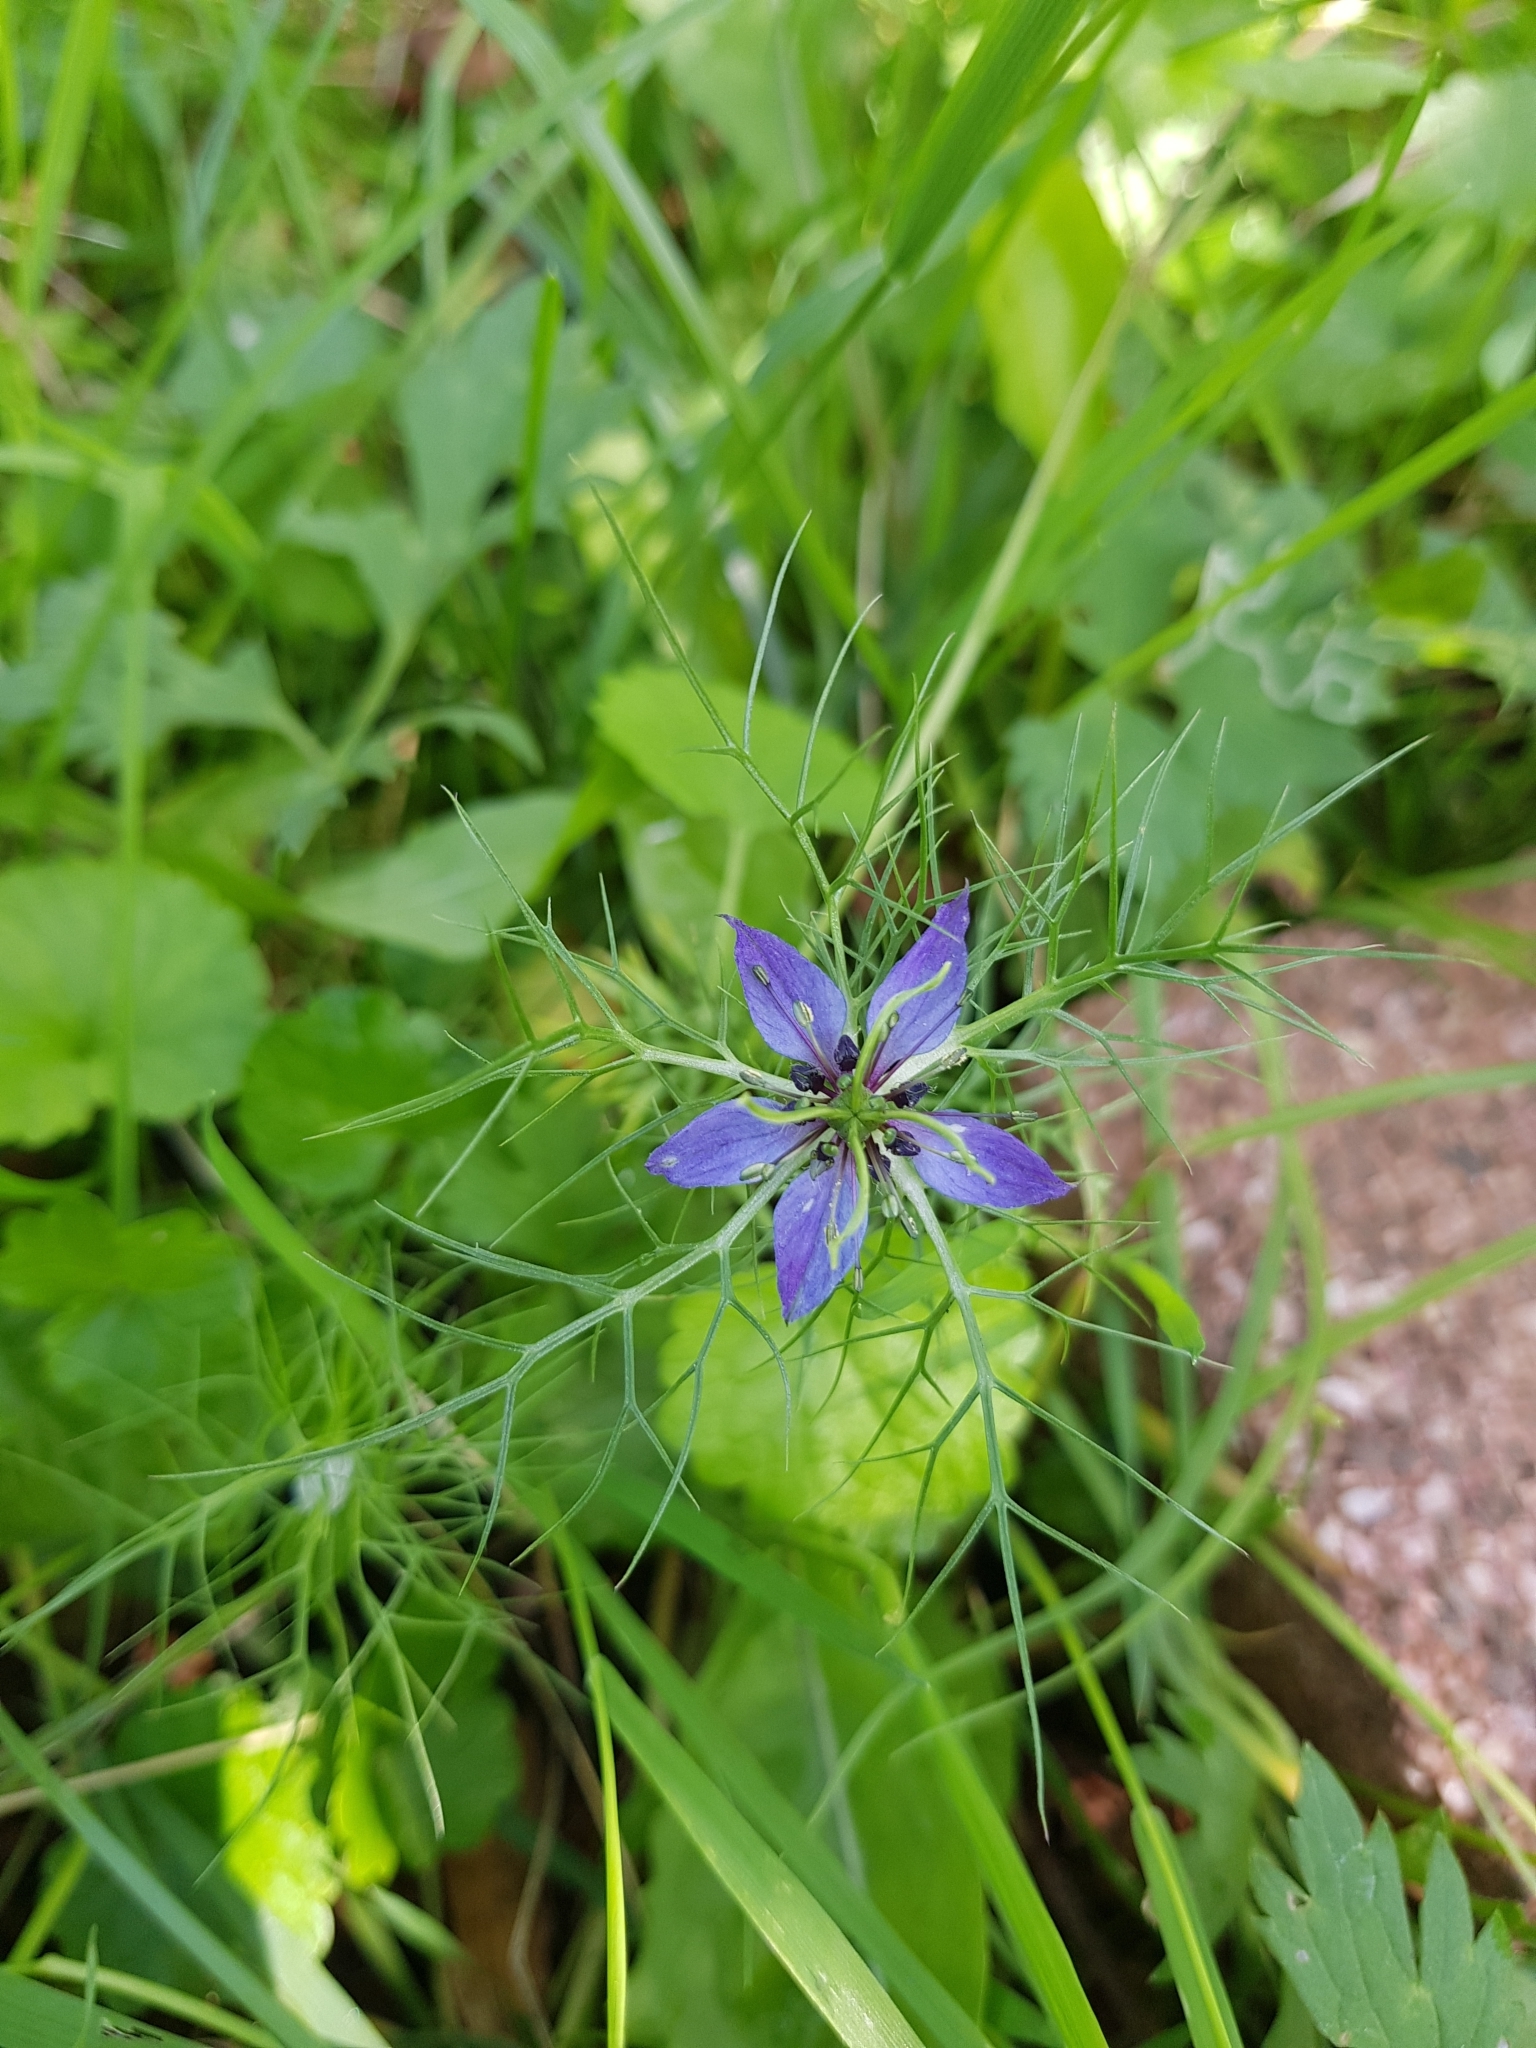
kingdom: Plantae
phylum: Tracheophyta
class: Magnoliopsida
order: Ranunculales
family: Ranunculaceae
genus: Nigella
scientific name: Nigella damascena
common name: Love-in-a-mist
